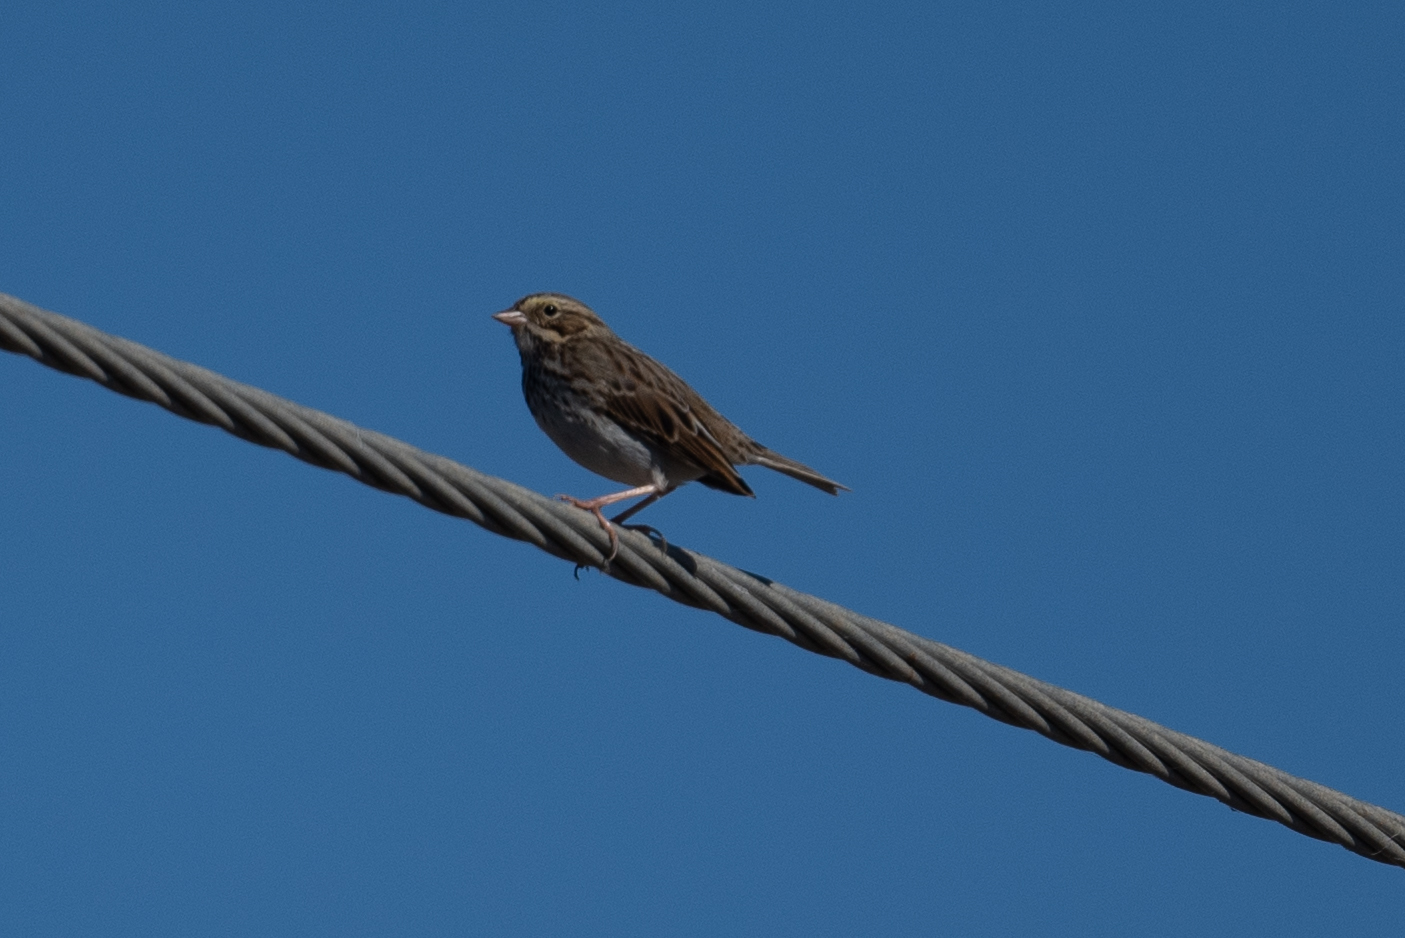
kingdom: Animalia
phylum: Chordata
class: Aves
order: Passeriformes
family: Passerellidae
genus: Passerculus
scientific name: Passerculus sandwichensis
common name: Savannah sparrow
